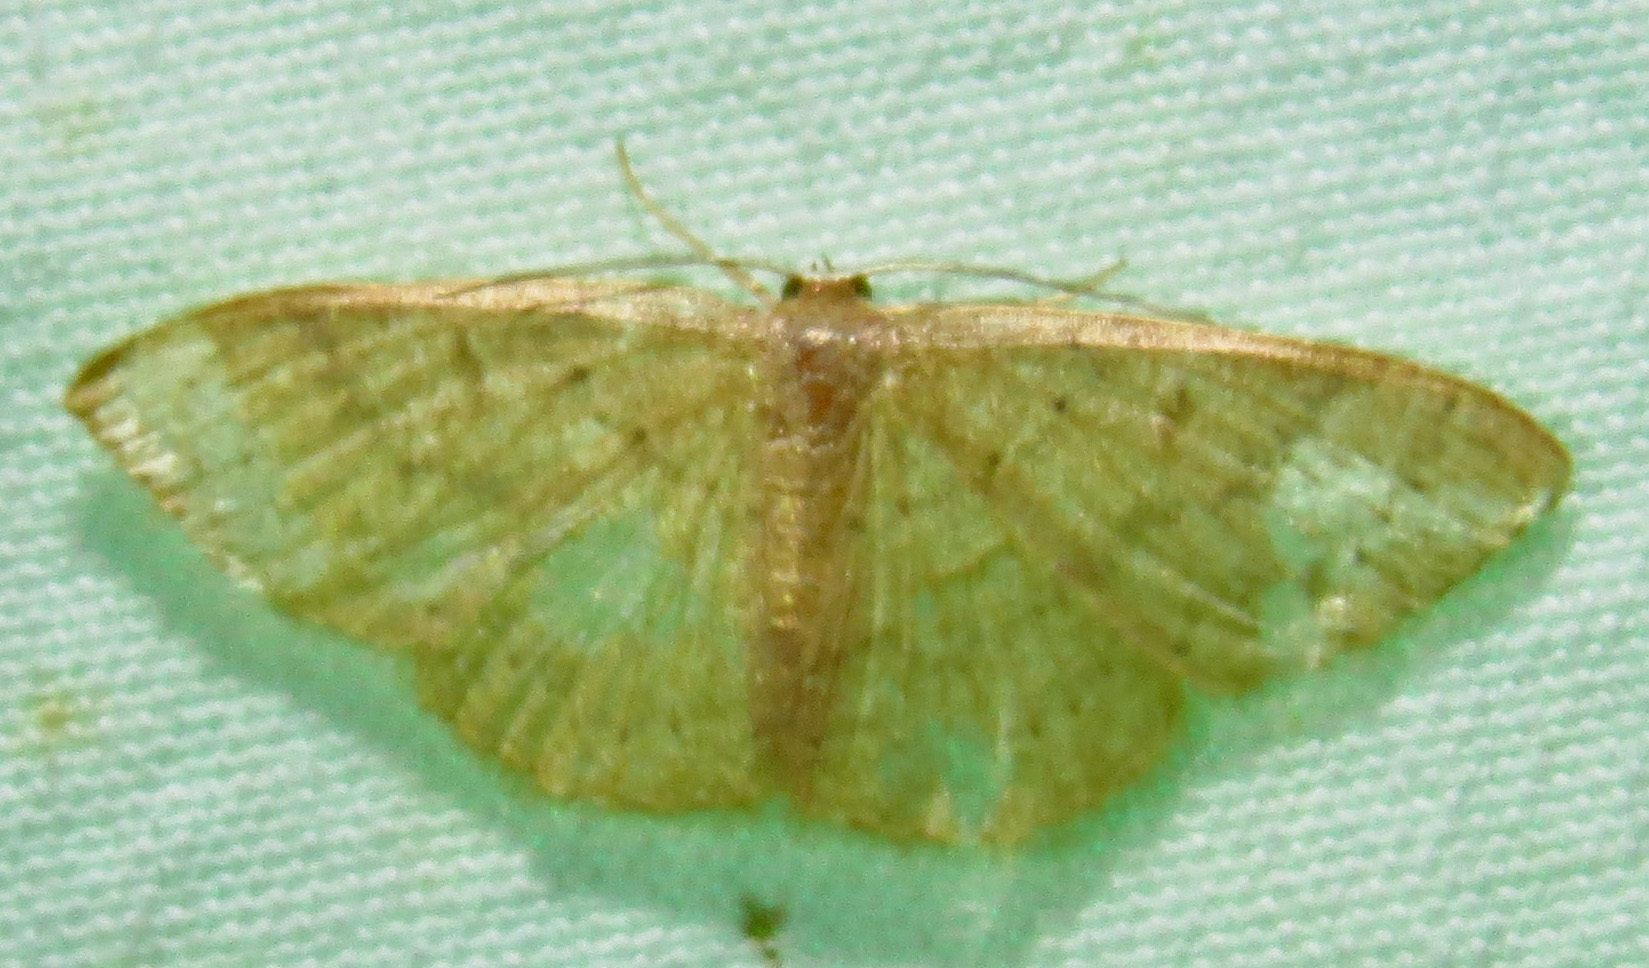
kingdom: Animalia
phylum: Arthropoda
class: Insecta
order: Lepidoptera
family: Geometridae
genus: Pleuroprucha
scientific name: Pleuroprucha insulsaria
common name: Common tan wave
